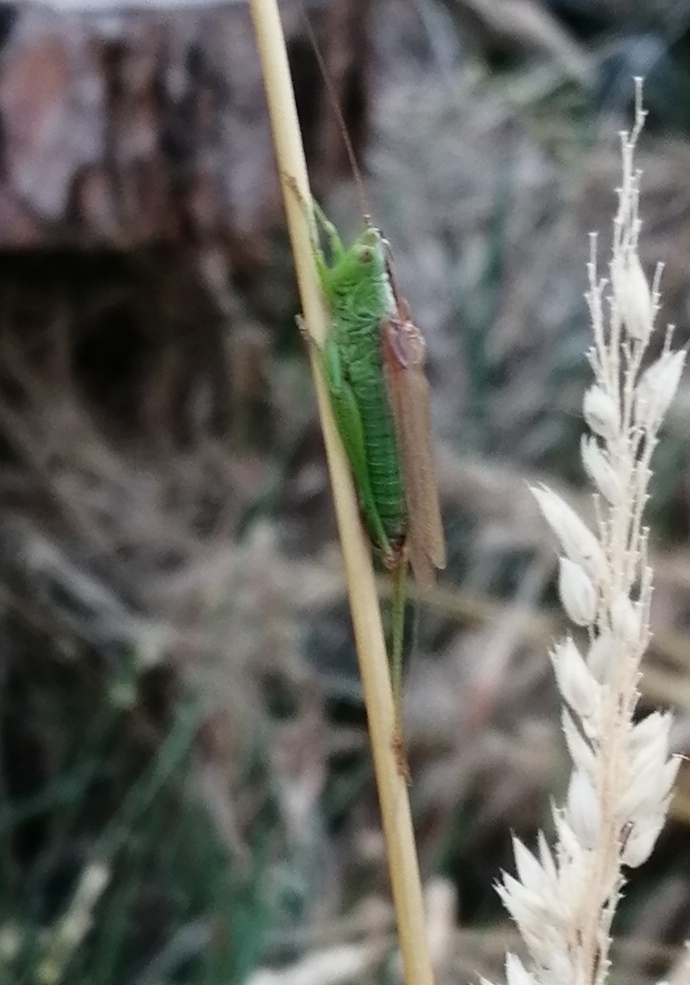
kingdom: Animalia
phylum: Arthropoda
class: Insecta
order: Orthoptera
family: Tettigoniidae
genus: Conocephalus
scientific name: Conocephalus fuscus
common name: Long-winged conehead
